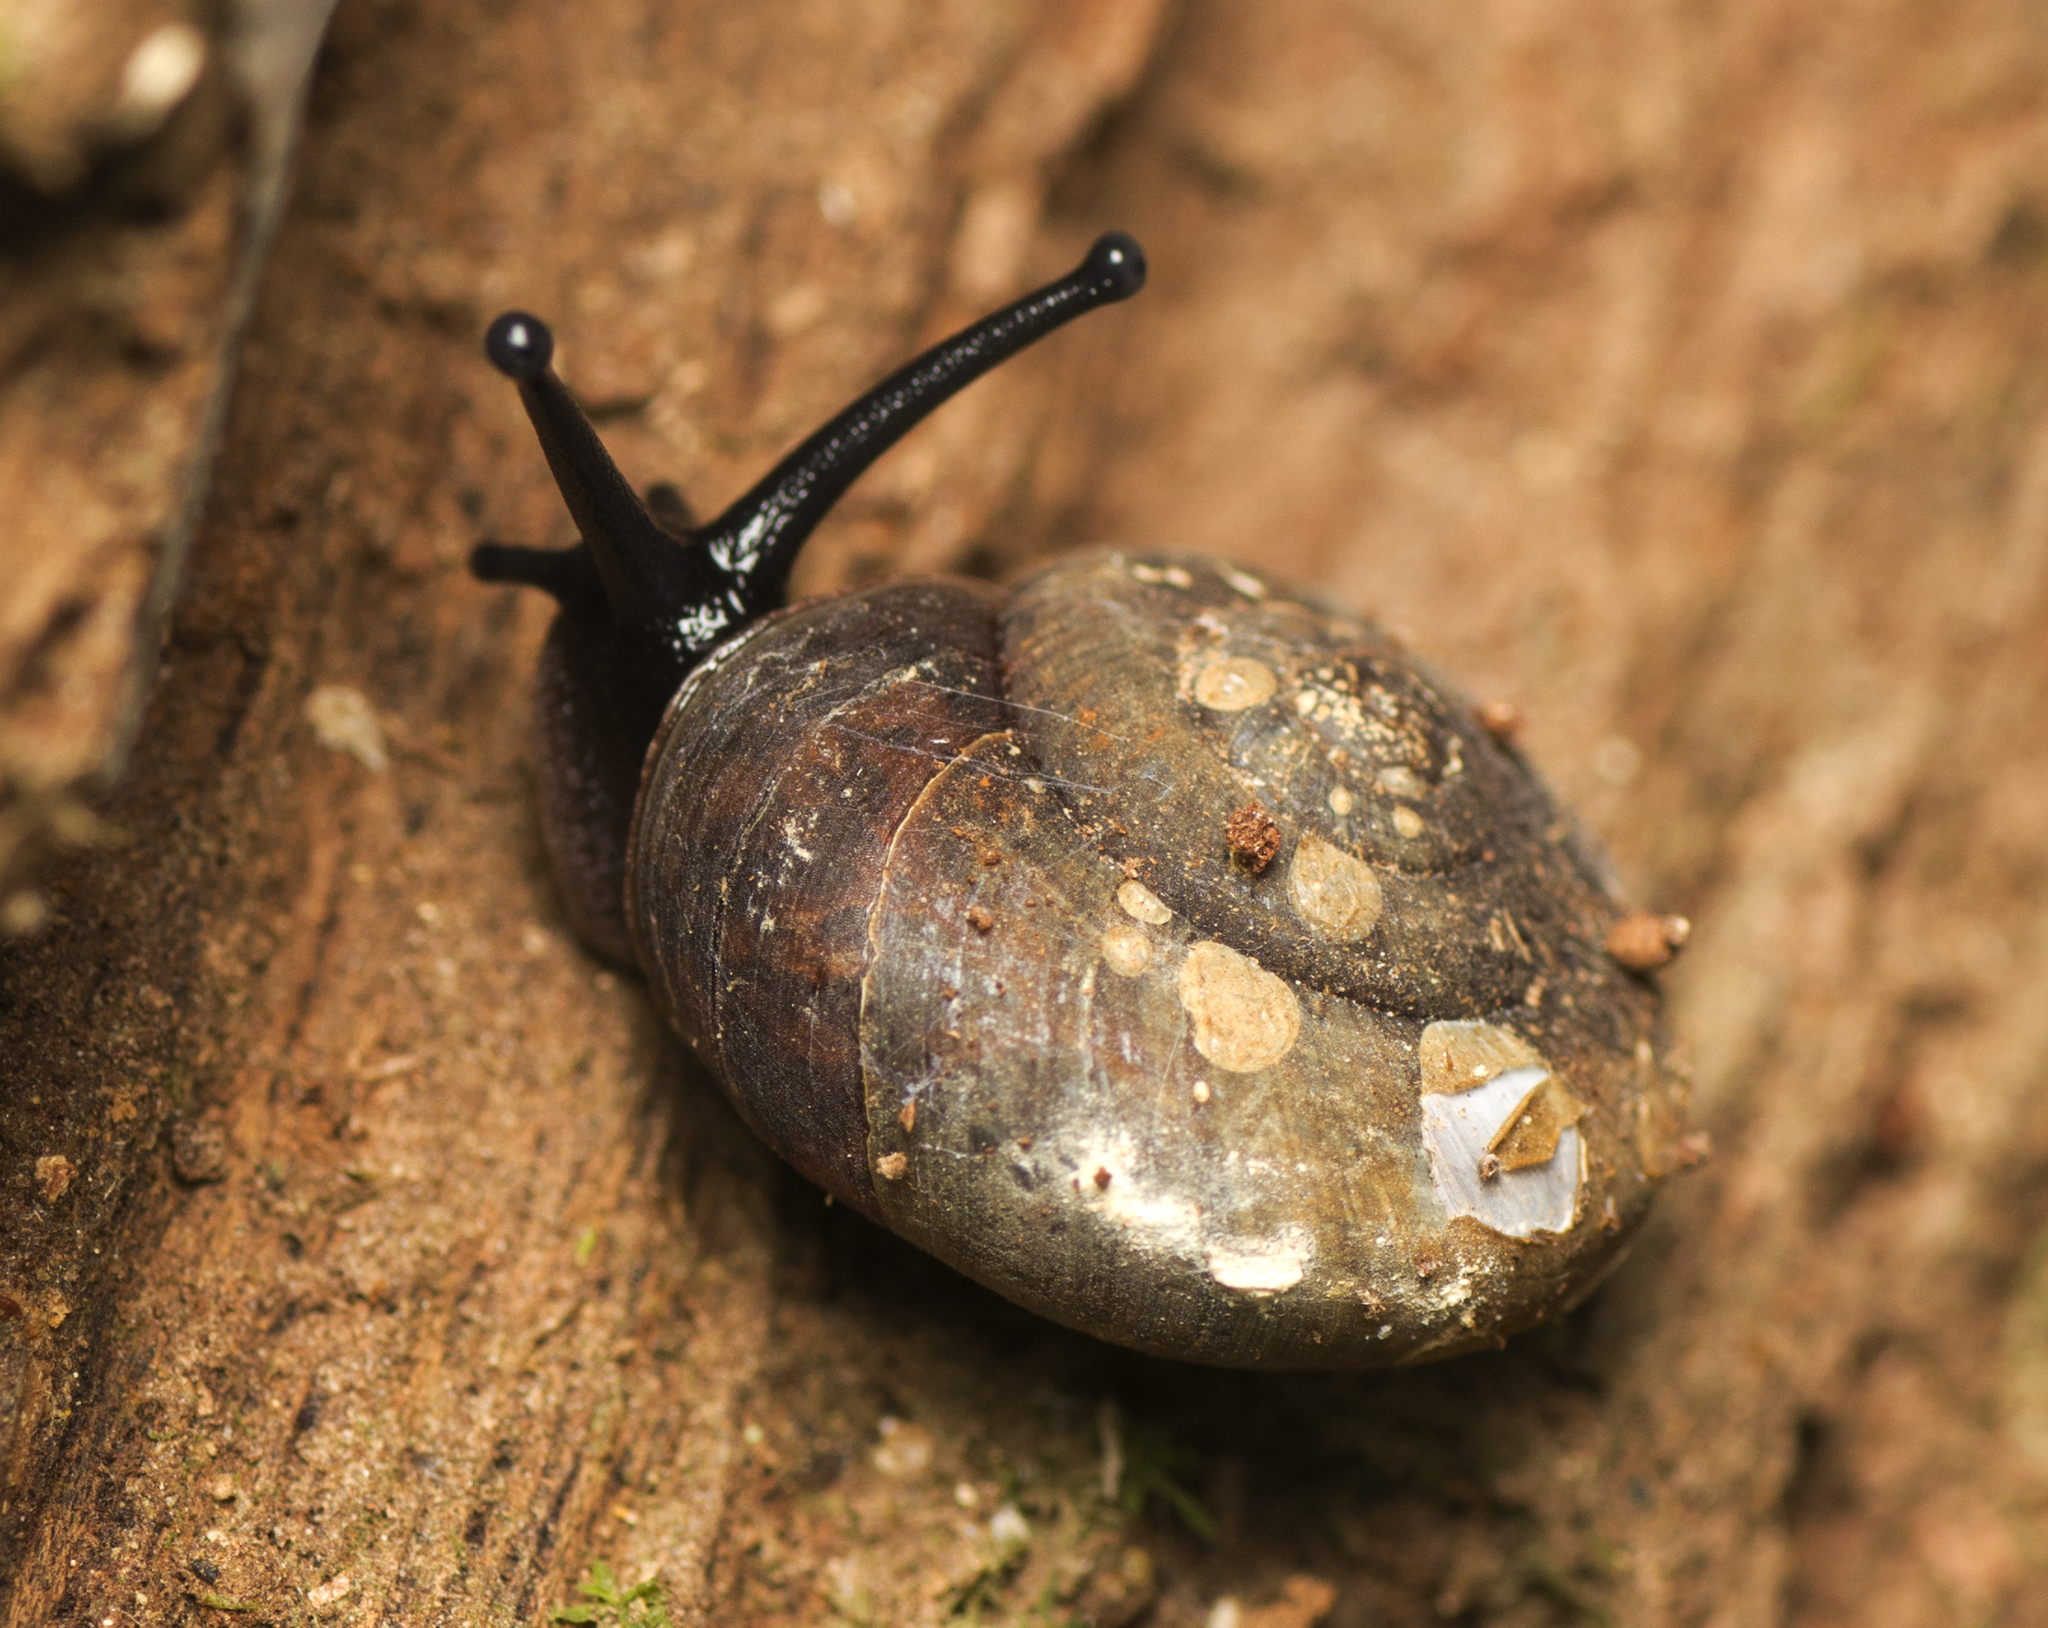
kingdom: Animalia
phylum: Mollusca
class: Gastropoda
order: Stylommatophora
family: Camaenidae
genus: Ramogenia
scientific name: Ramogenia challengeri
